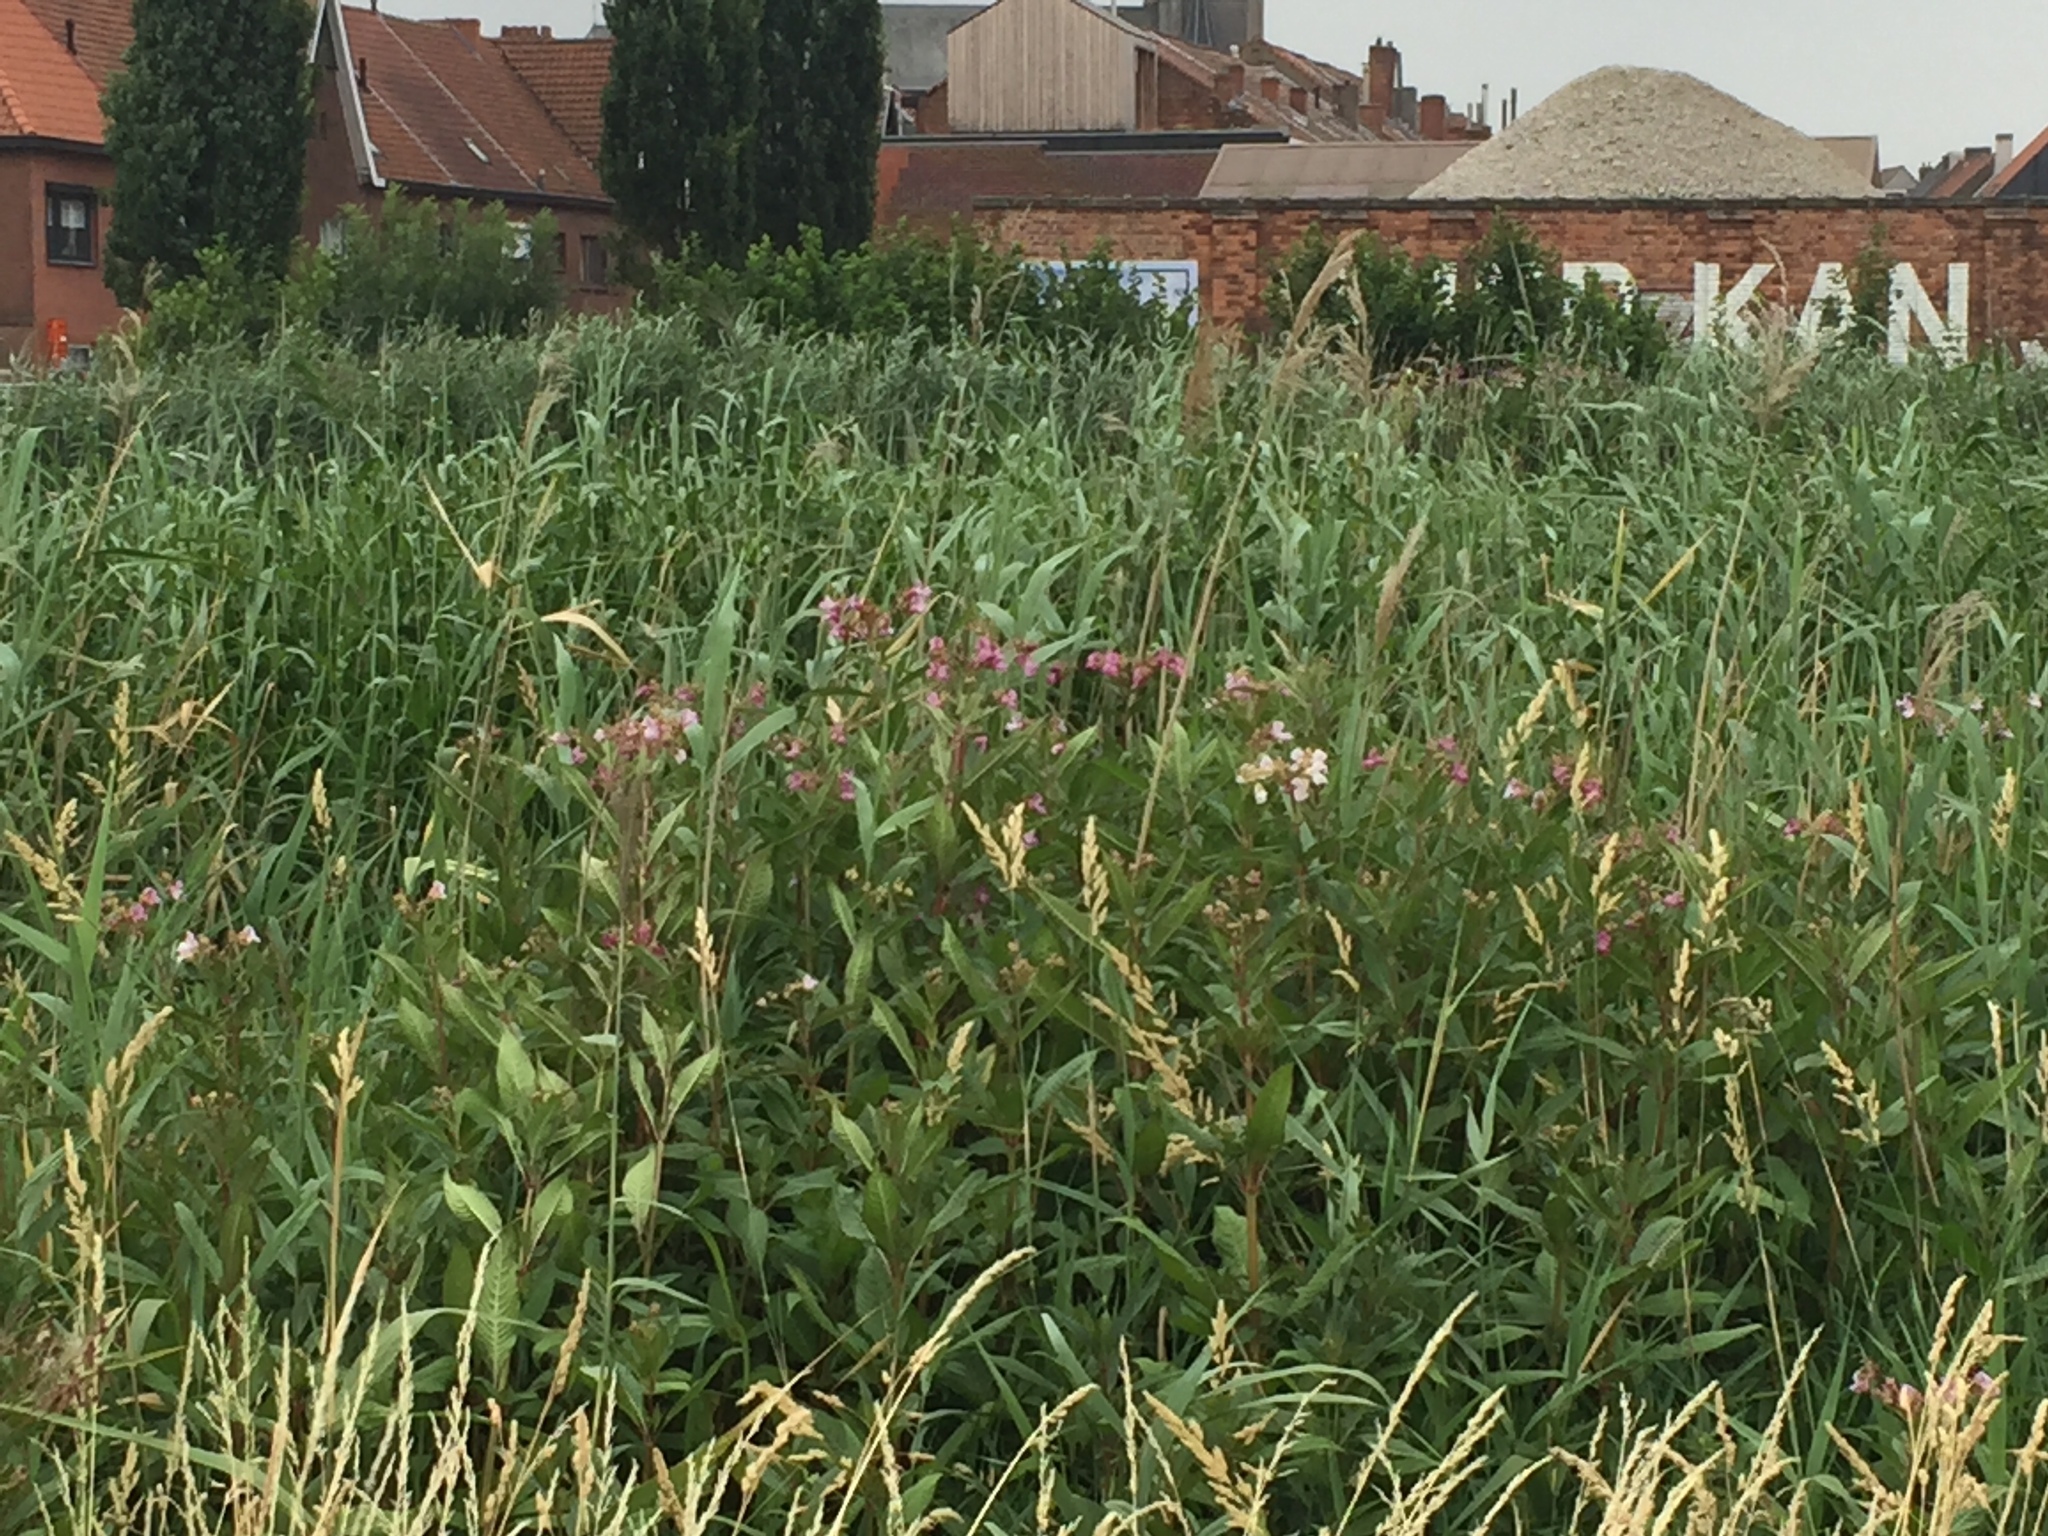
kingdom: Plantae
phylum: Tracheophyta
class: Magnoliopsida
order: Ericales
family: Balsaminaceae
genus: Impatiens
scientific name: Impatiens glandulifera
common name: Himalayan balsam
